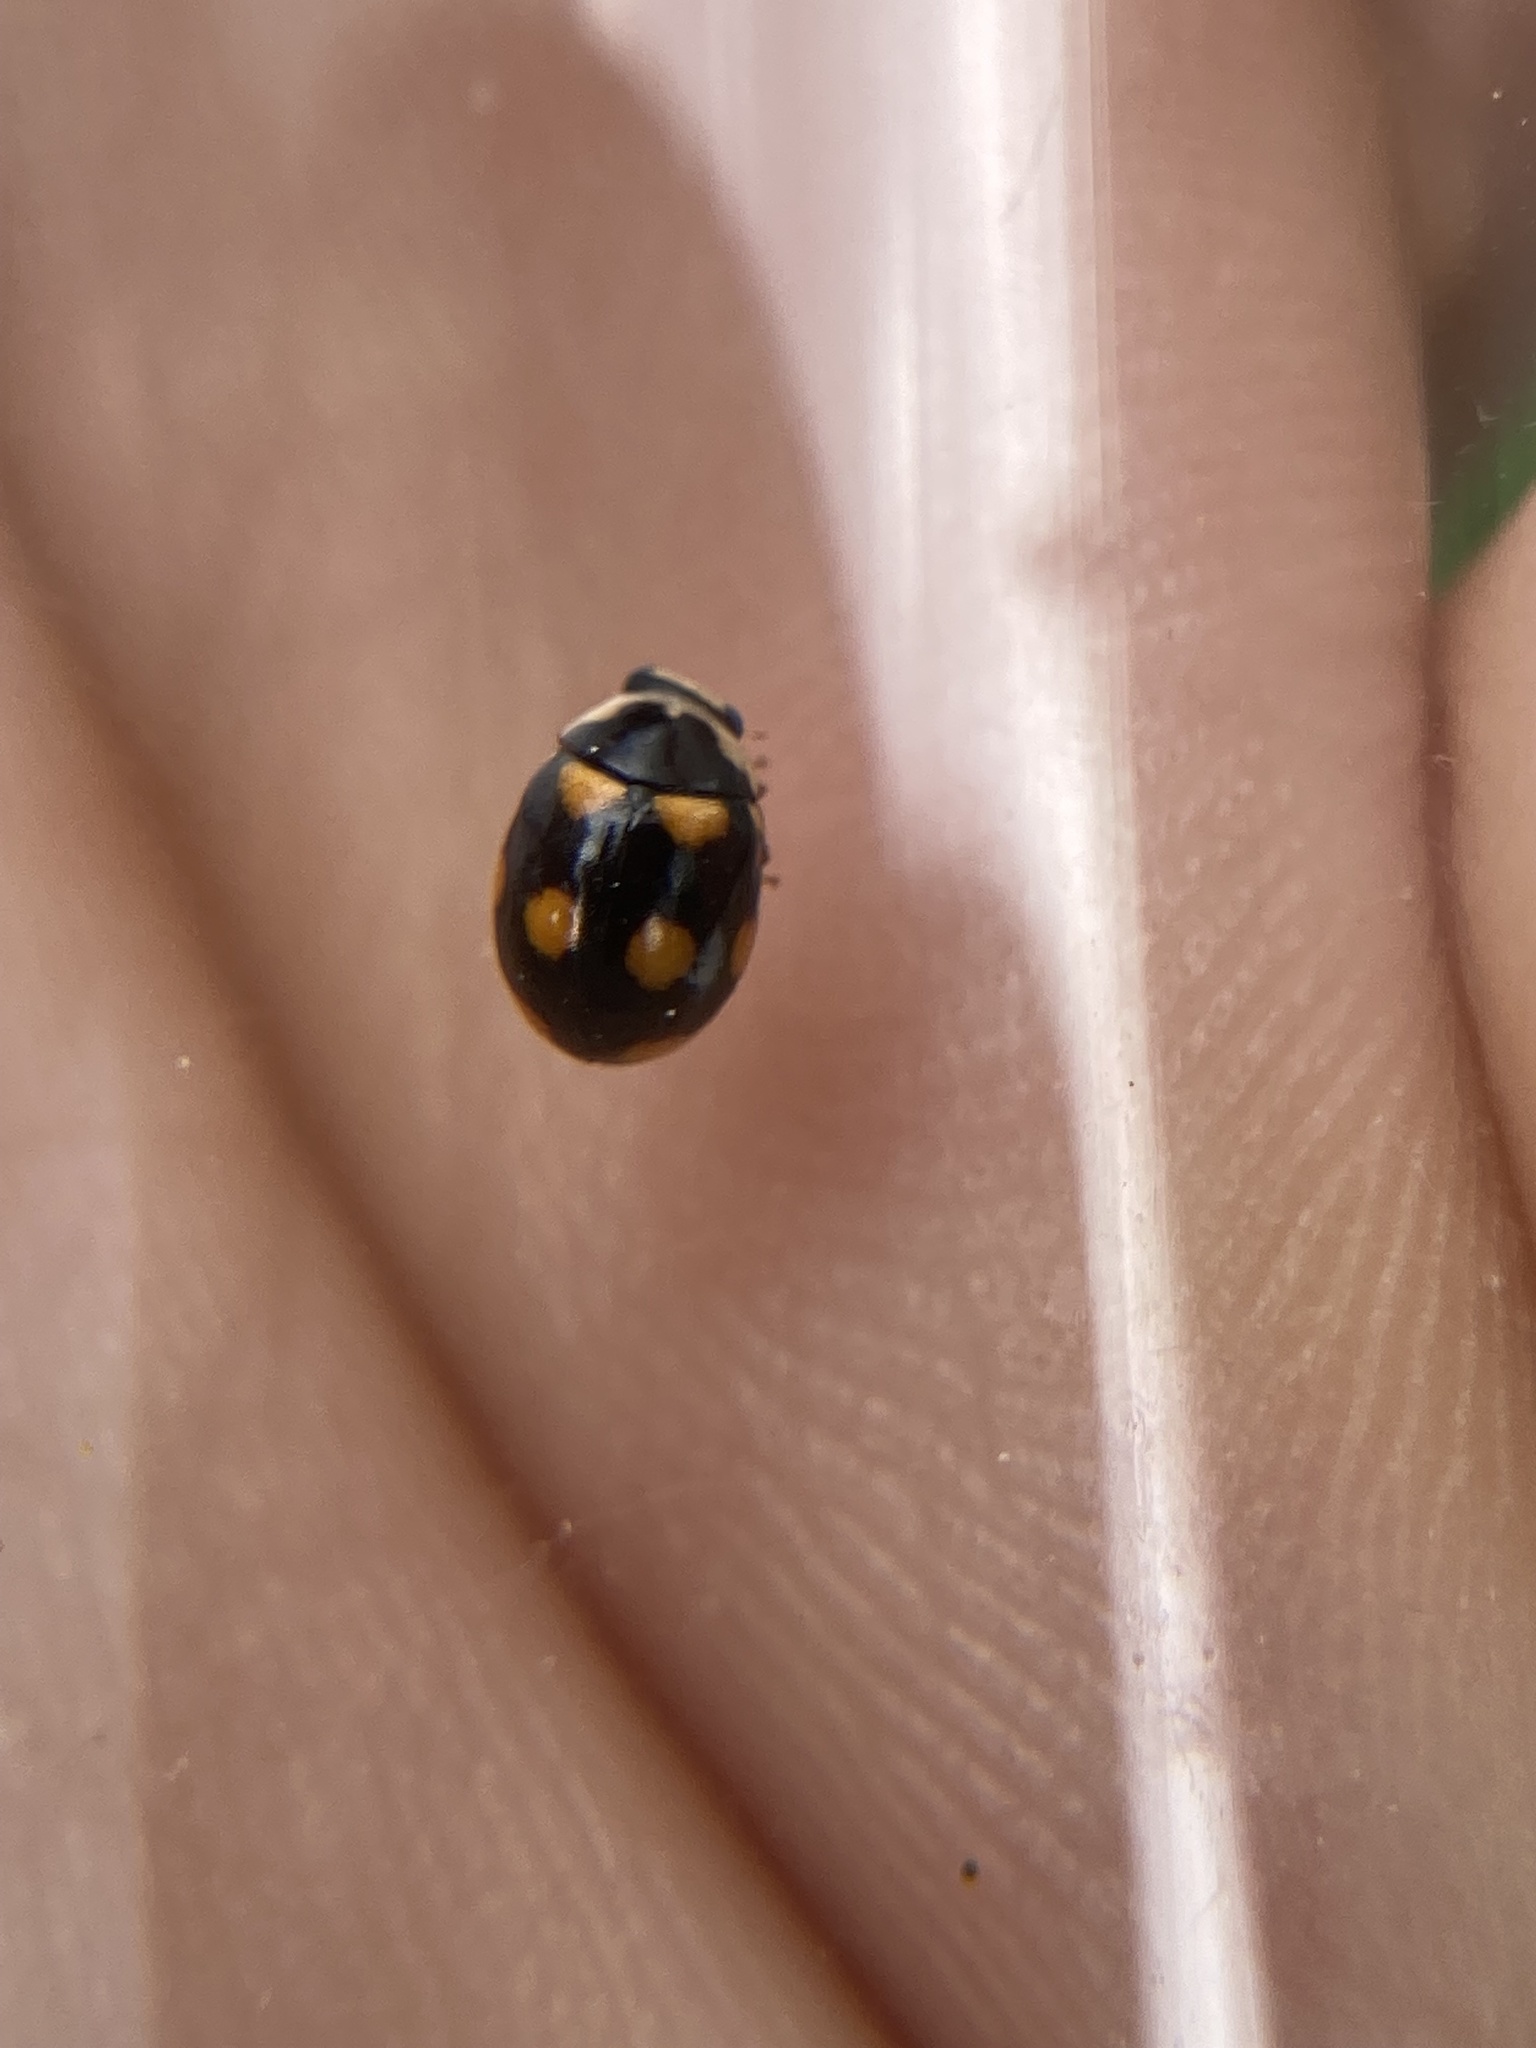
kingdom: Animalia
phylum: Arthropoda
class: Insecta
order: Coleoptera
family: Coccinellidae
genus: Brachiacantha
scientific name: Brachiacantha ursina
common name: Ursine spurleg lady beetle
